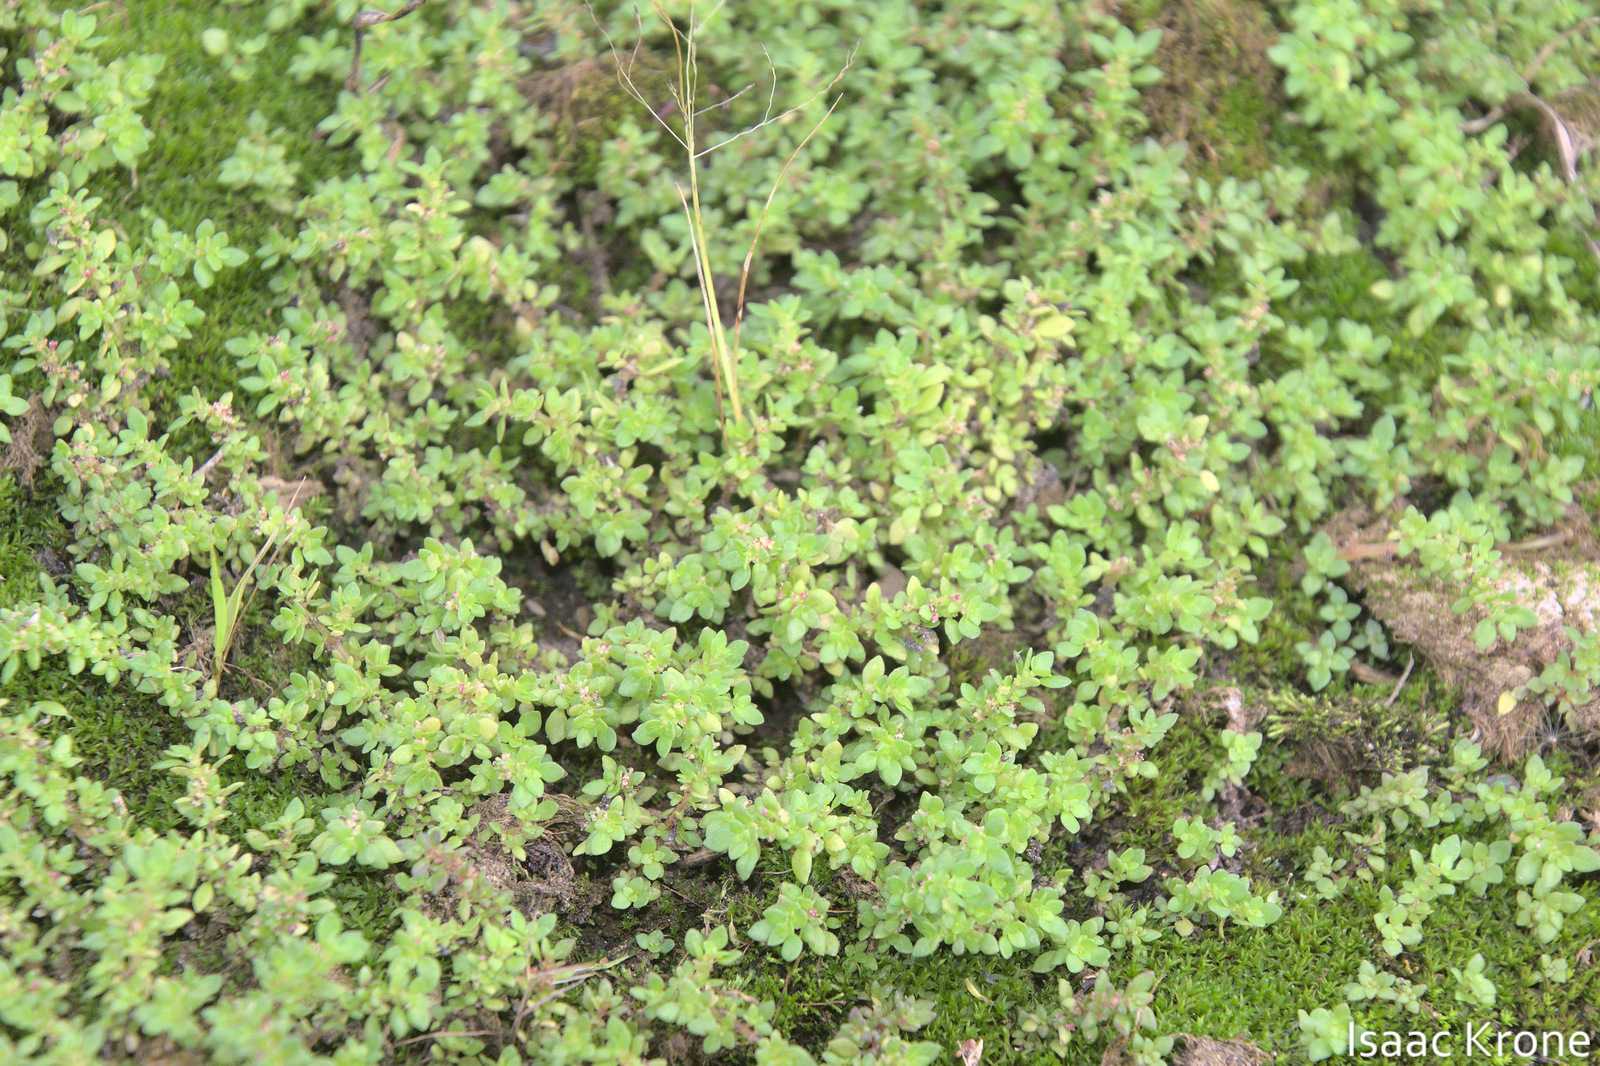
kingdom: Plantae
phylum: Tracheophyta
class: Magnoliopsida
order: Rosales
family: Urticaceae
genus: Pilea
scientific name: Pilea microphylla
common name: Artillery-plant
